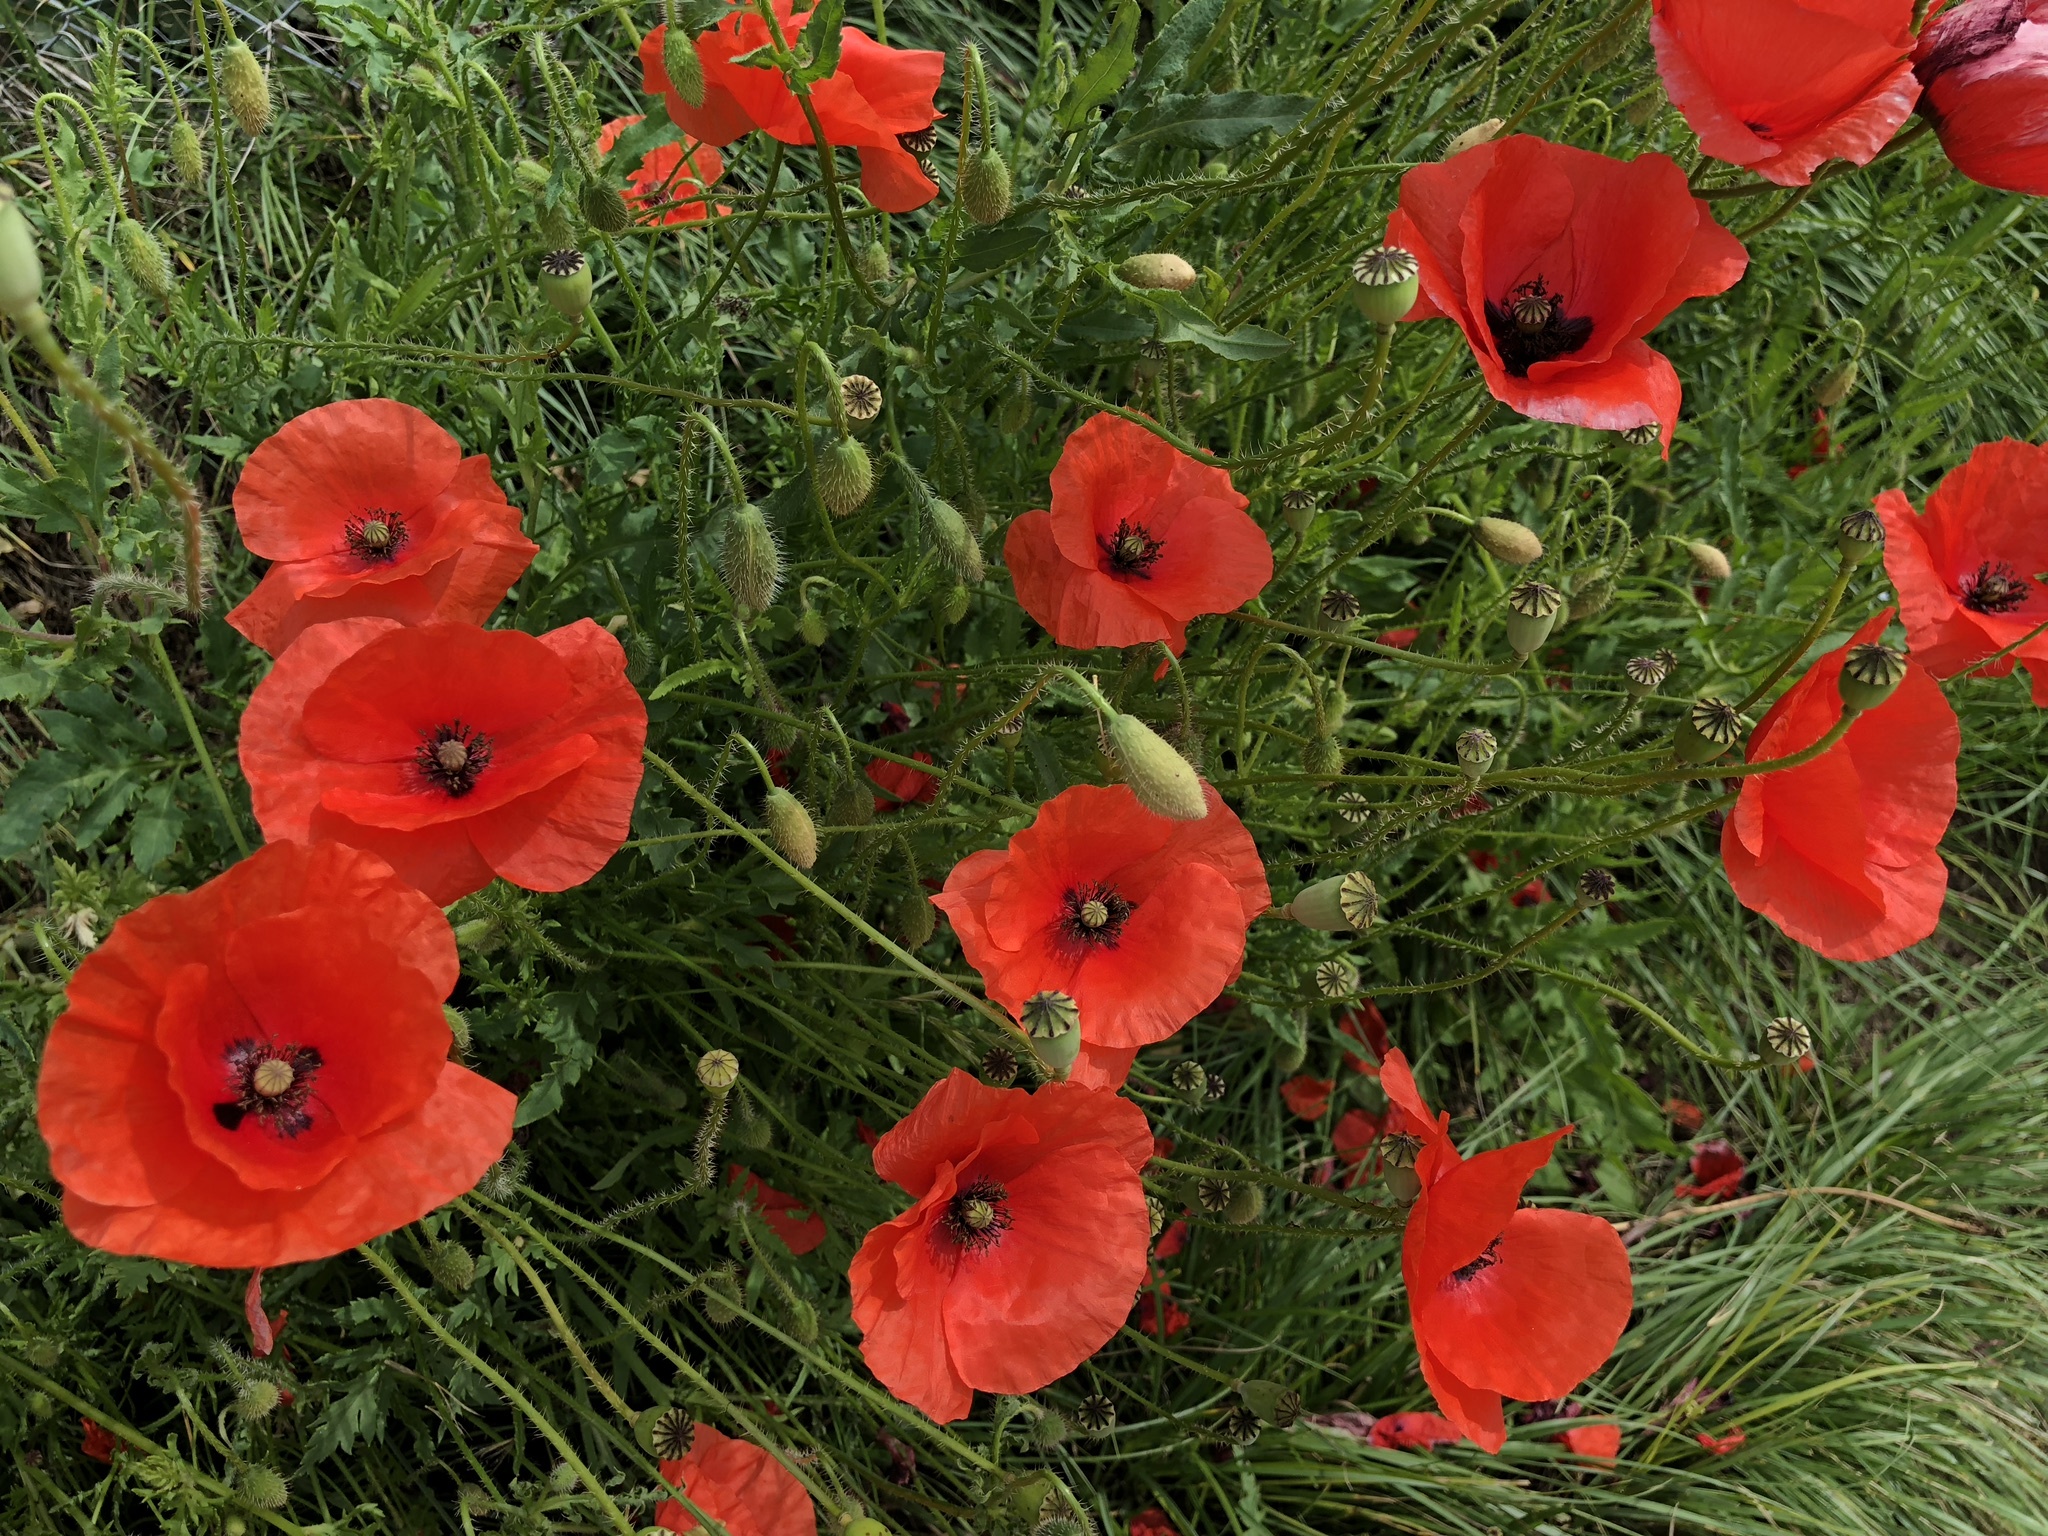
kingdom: Plantae
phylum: Tracheophyta
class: Magnoliopsida
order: Ranunculales
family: Papaveraceae
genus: Papaver
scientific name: Papaver rhoeas
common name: Corn poppy
